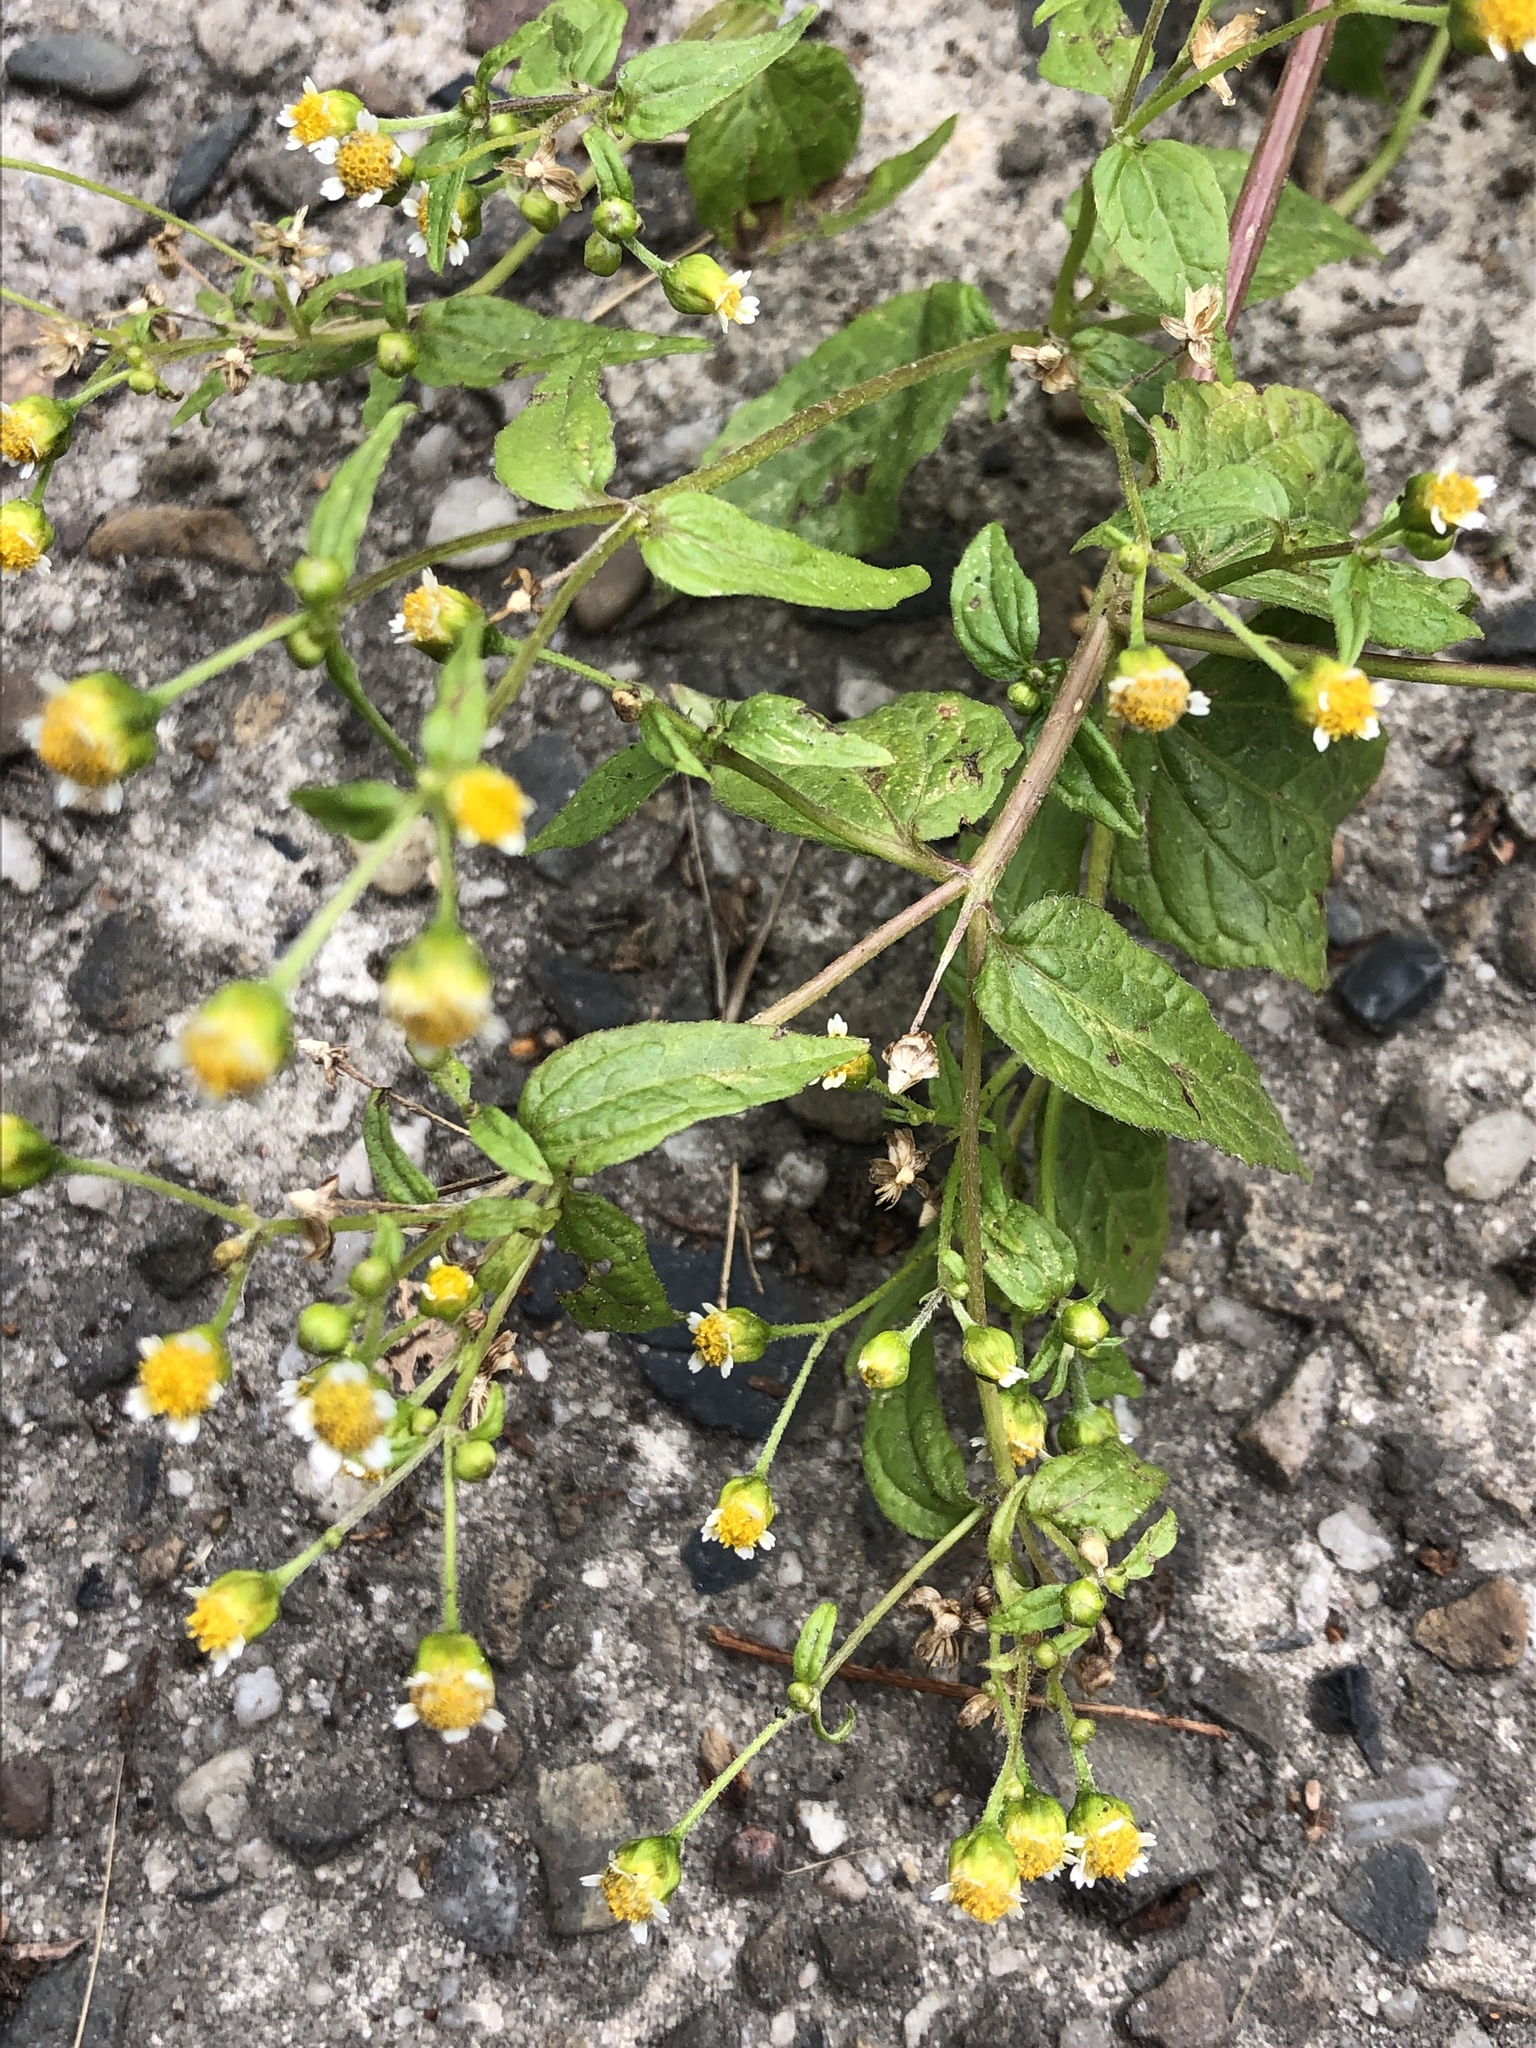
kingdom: Plantae
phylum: Tracheophyta
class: Magnoliopsida
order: Asterales
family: Asteraceae
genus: Galinsoga
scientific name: Galinsoga parviflora
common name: Gallant soldier
